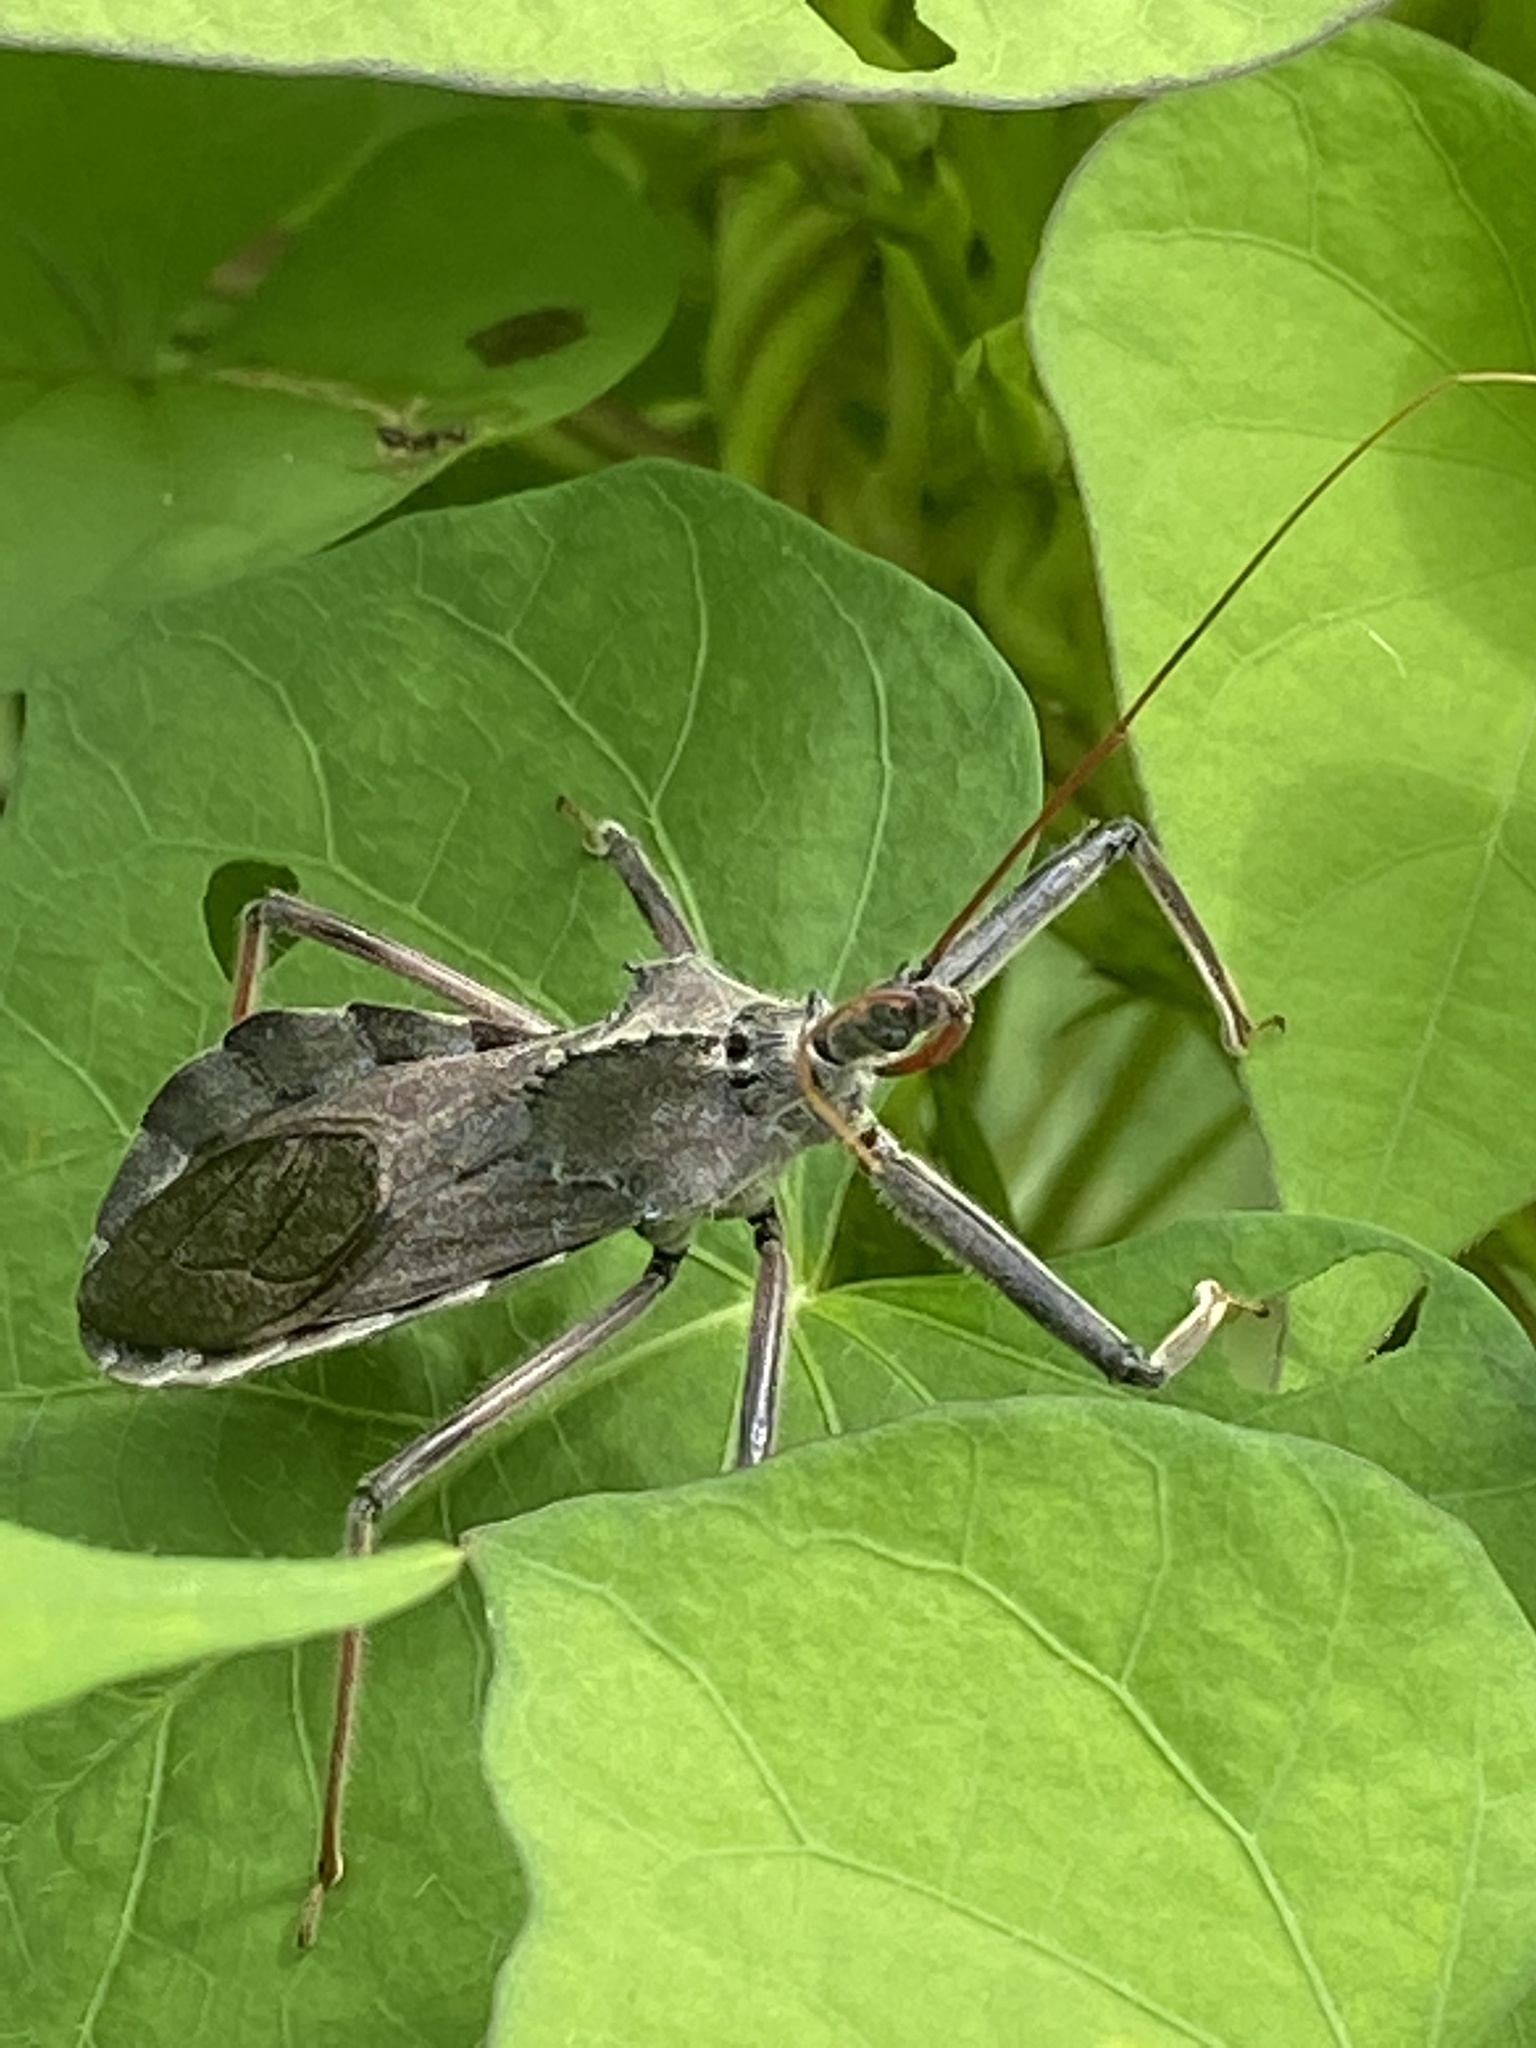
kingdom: Animalia
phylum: Arthropoda
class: Insecta
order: Hemiptera
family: Reduviidae
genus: Arilus
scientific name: Arilus cristatus
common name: North american wheel bug
